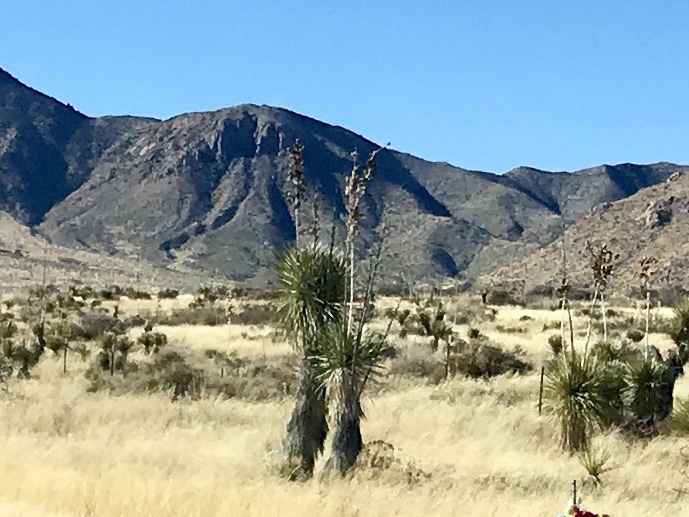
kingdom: Plantae
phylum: Tracheophyta
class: Liliopsida
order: Asparagales
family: Asparagaceae
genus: Yucca
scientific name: Yucca elata
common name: Palmella
